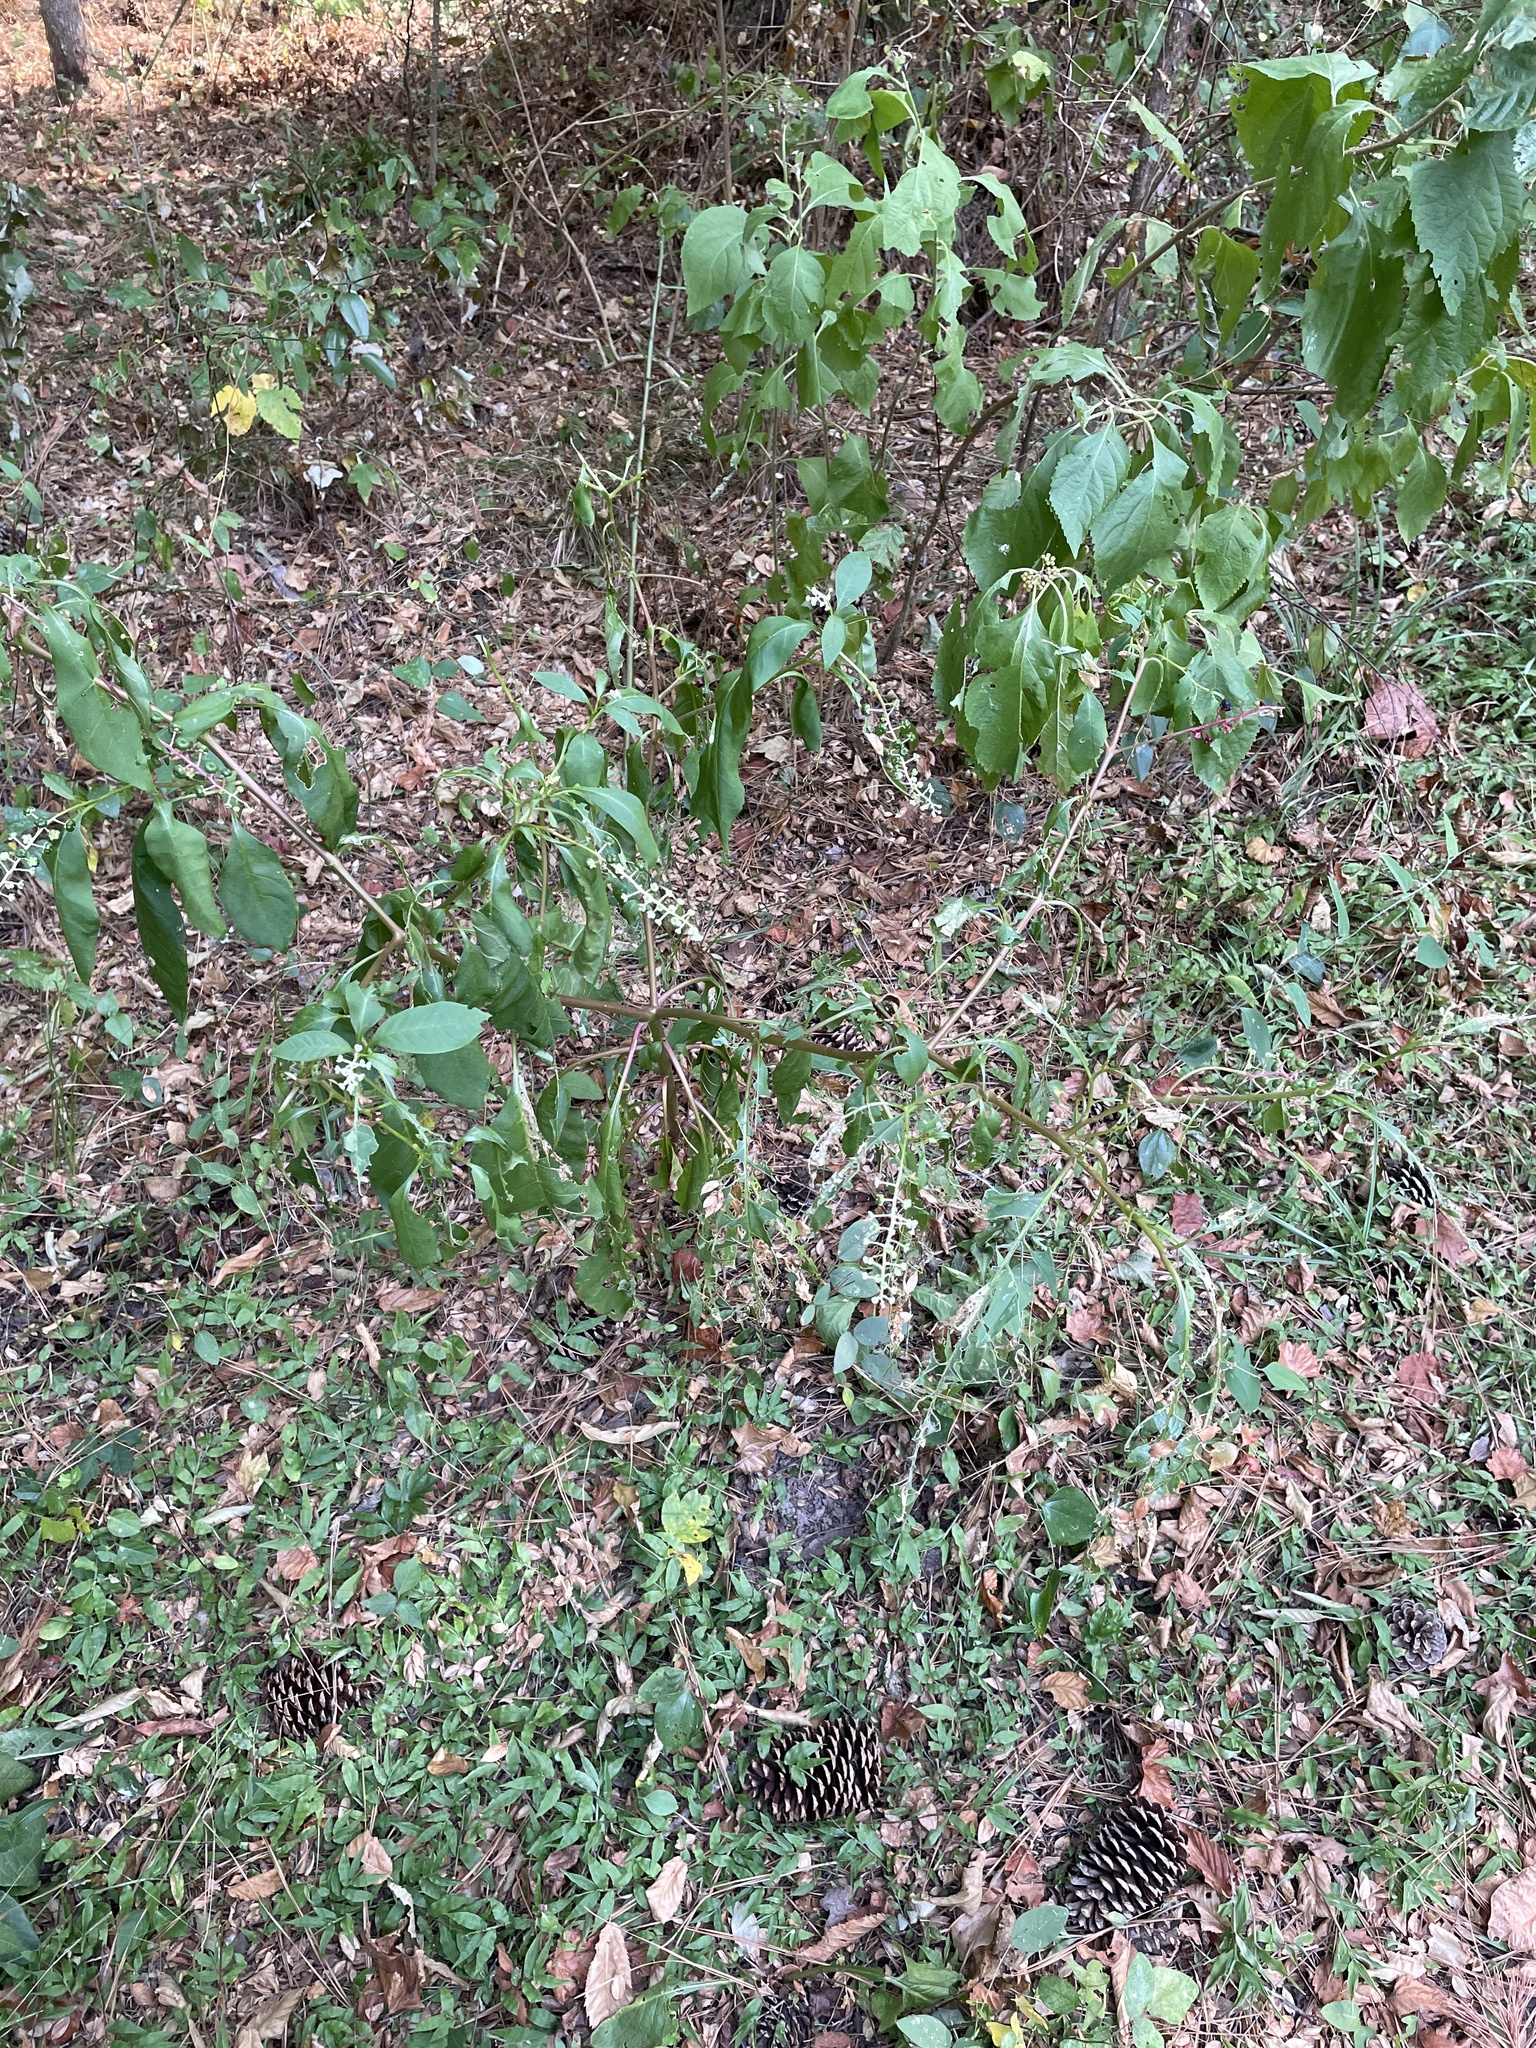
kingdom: Plantae
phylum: Tracheophyta
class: Magnoliopsida
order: Caryophyllales
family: Phytolaccaceae
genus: Phytolacca
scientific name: Phytolacca americana
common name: American pokeweed
